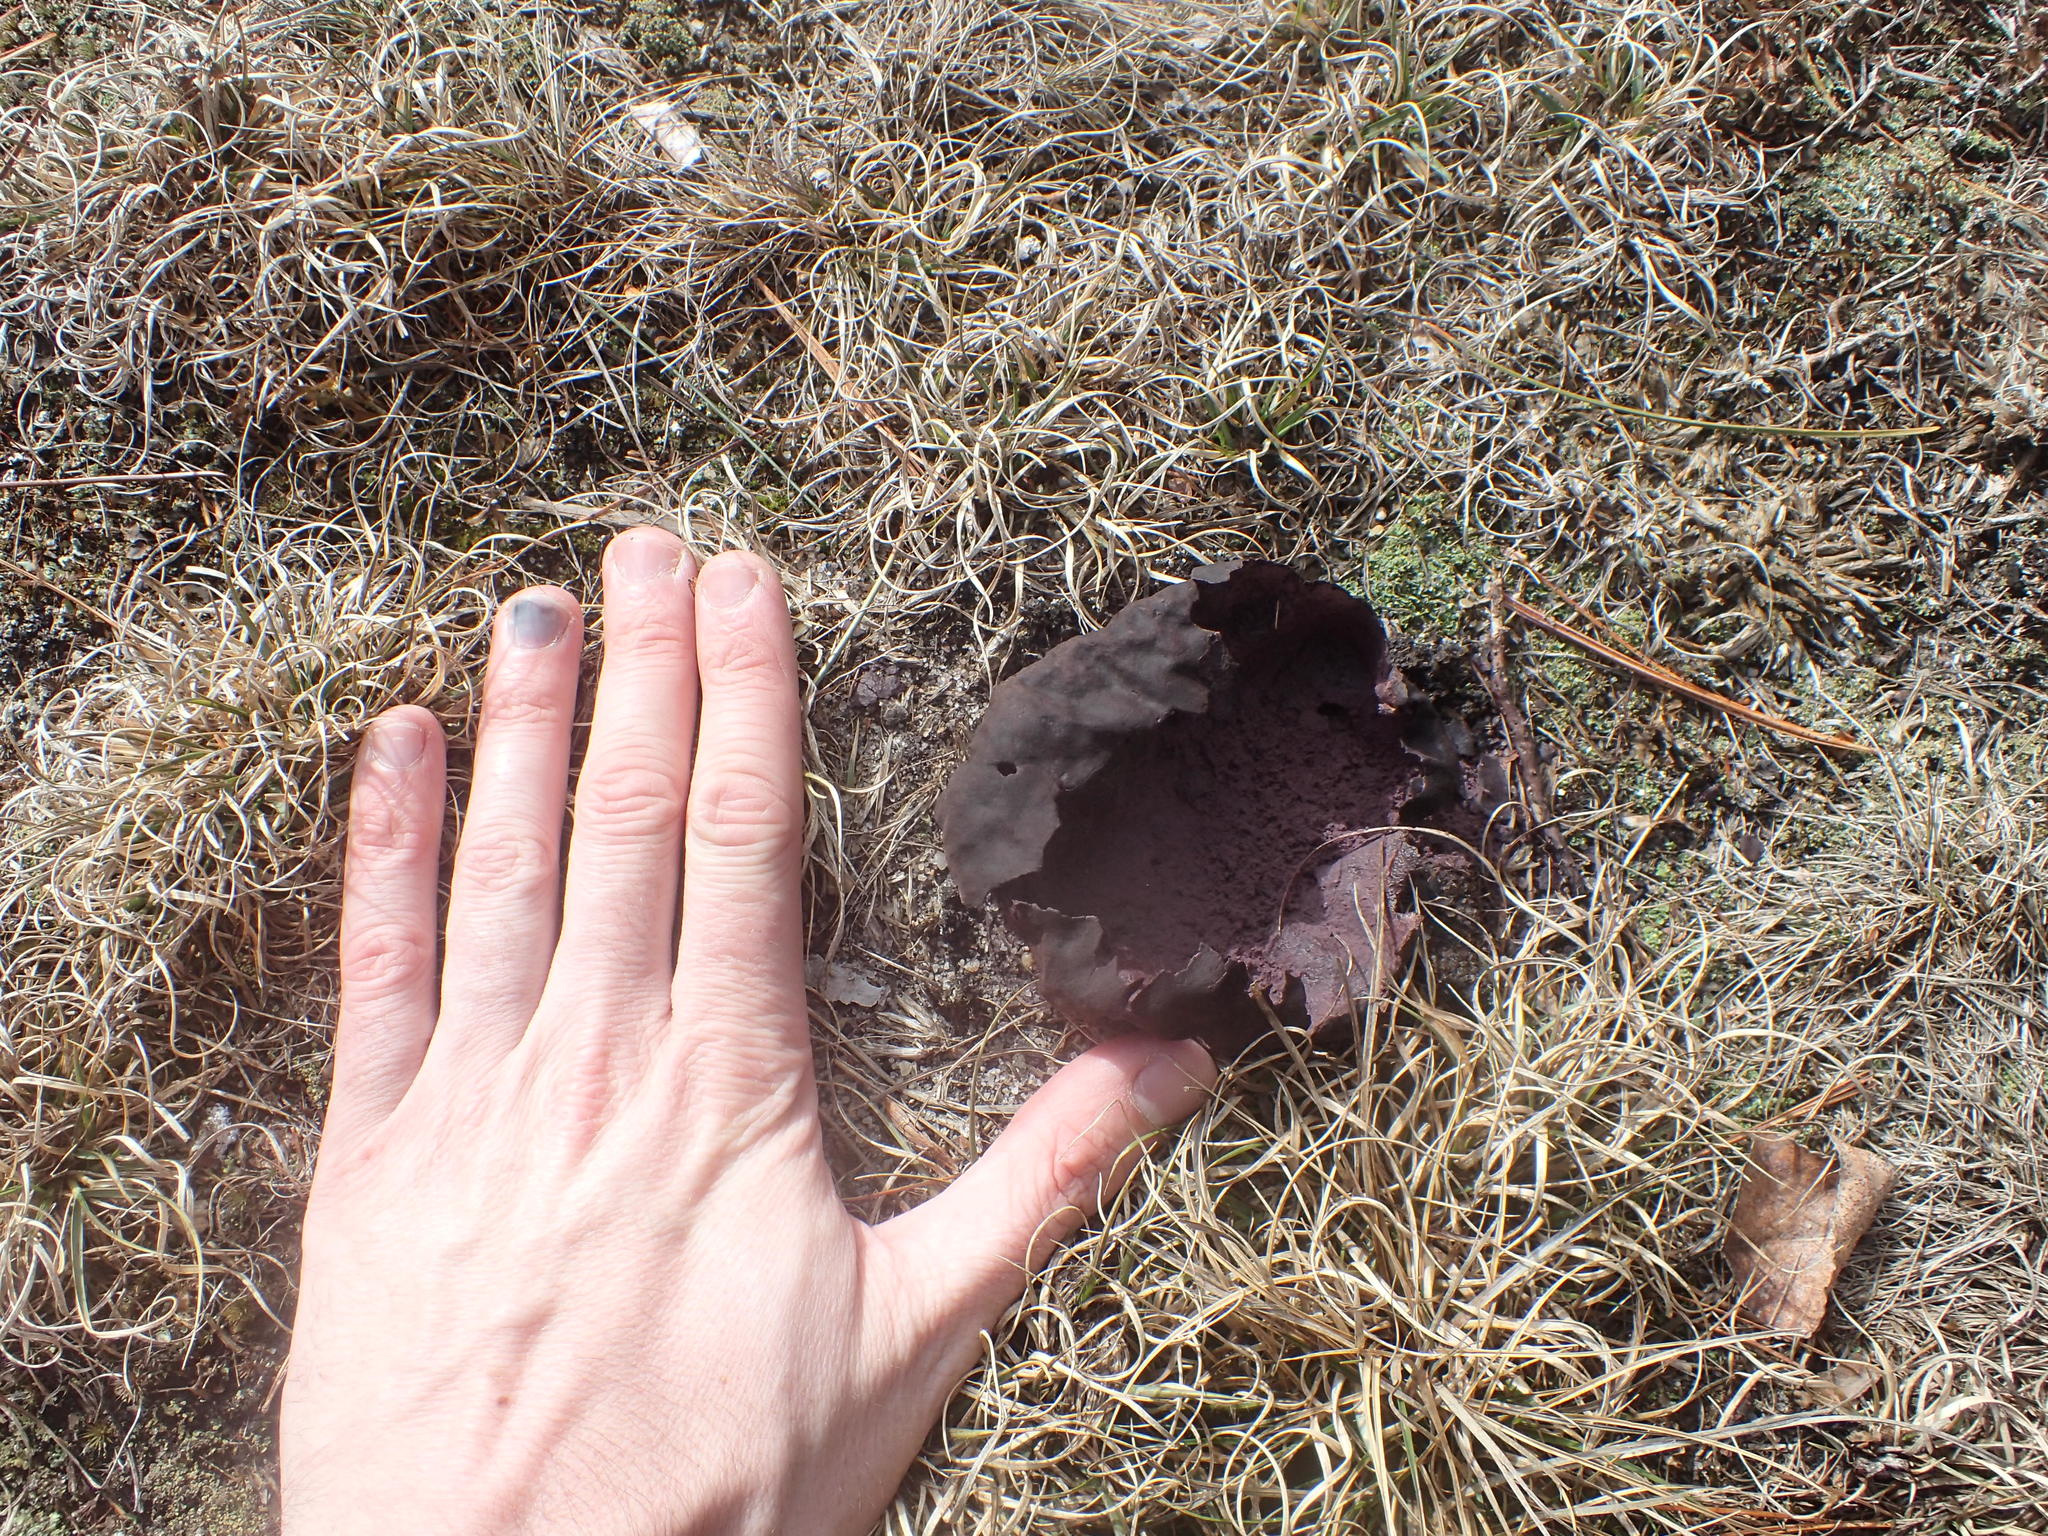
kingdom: Fungi
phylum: Basidiomycota
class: Agaricomycetes
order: Agaricales
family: Lycoperdaceae
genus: Calvatia
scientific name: Calvatia cyathiformis
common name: Purple-spored puffball
